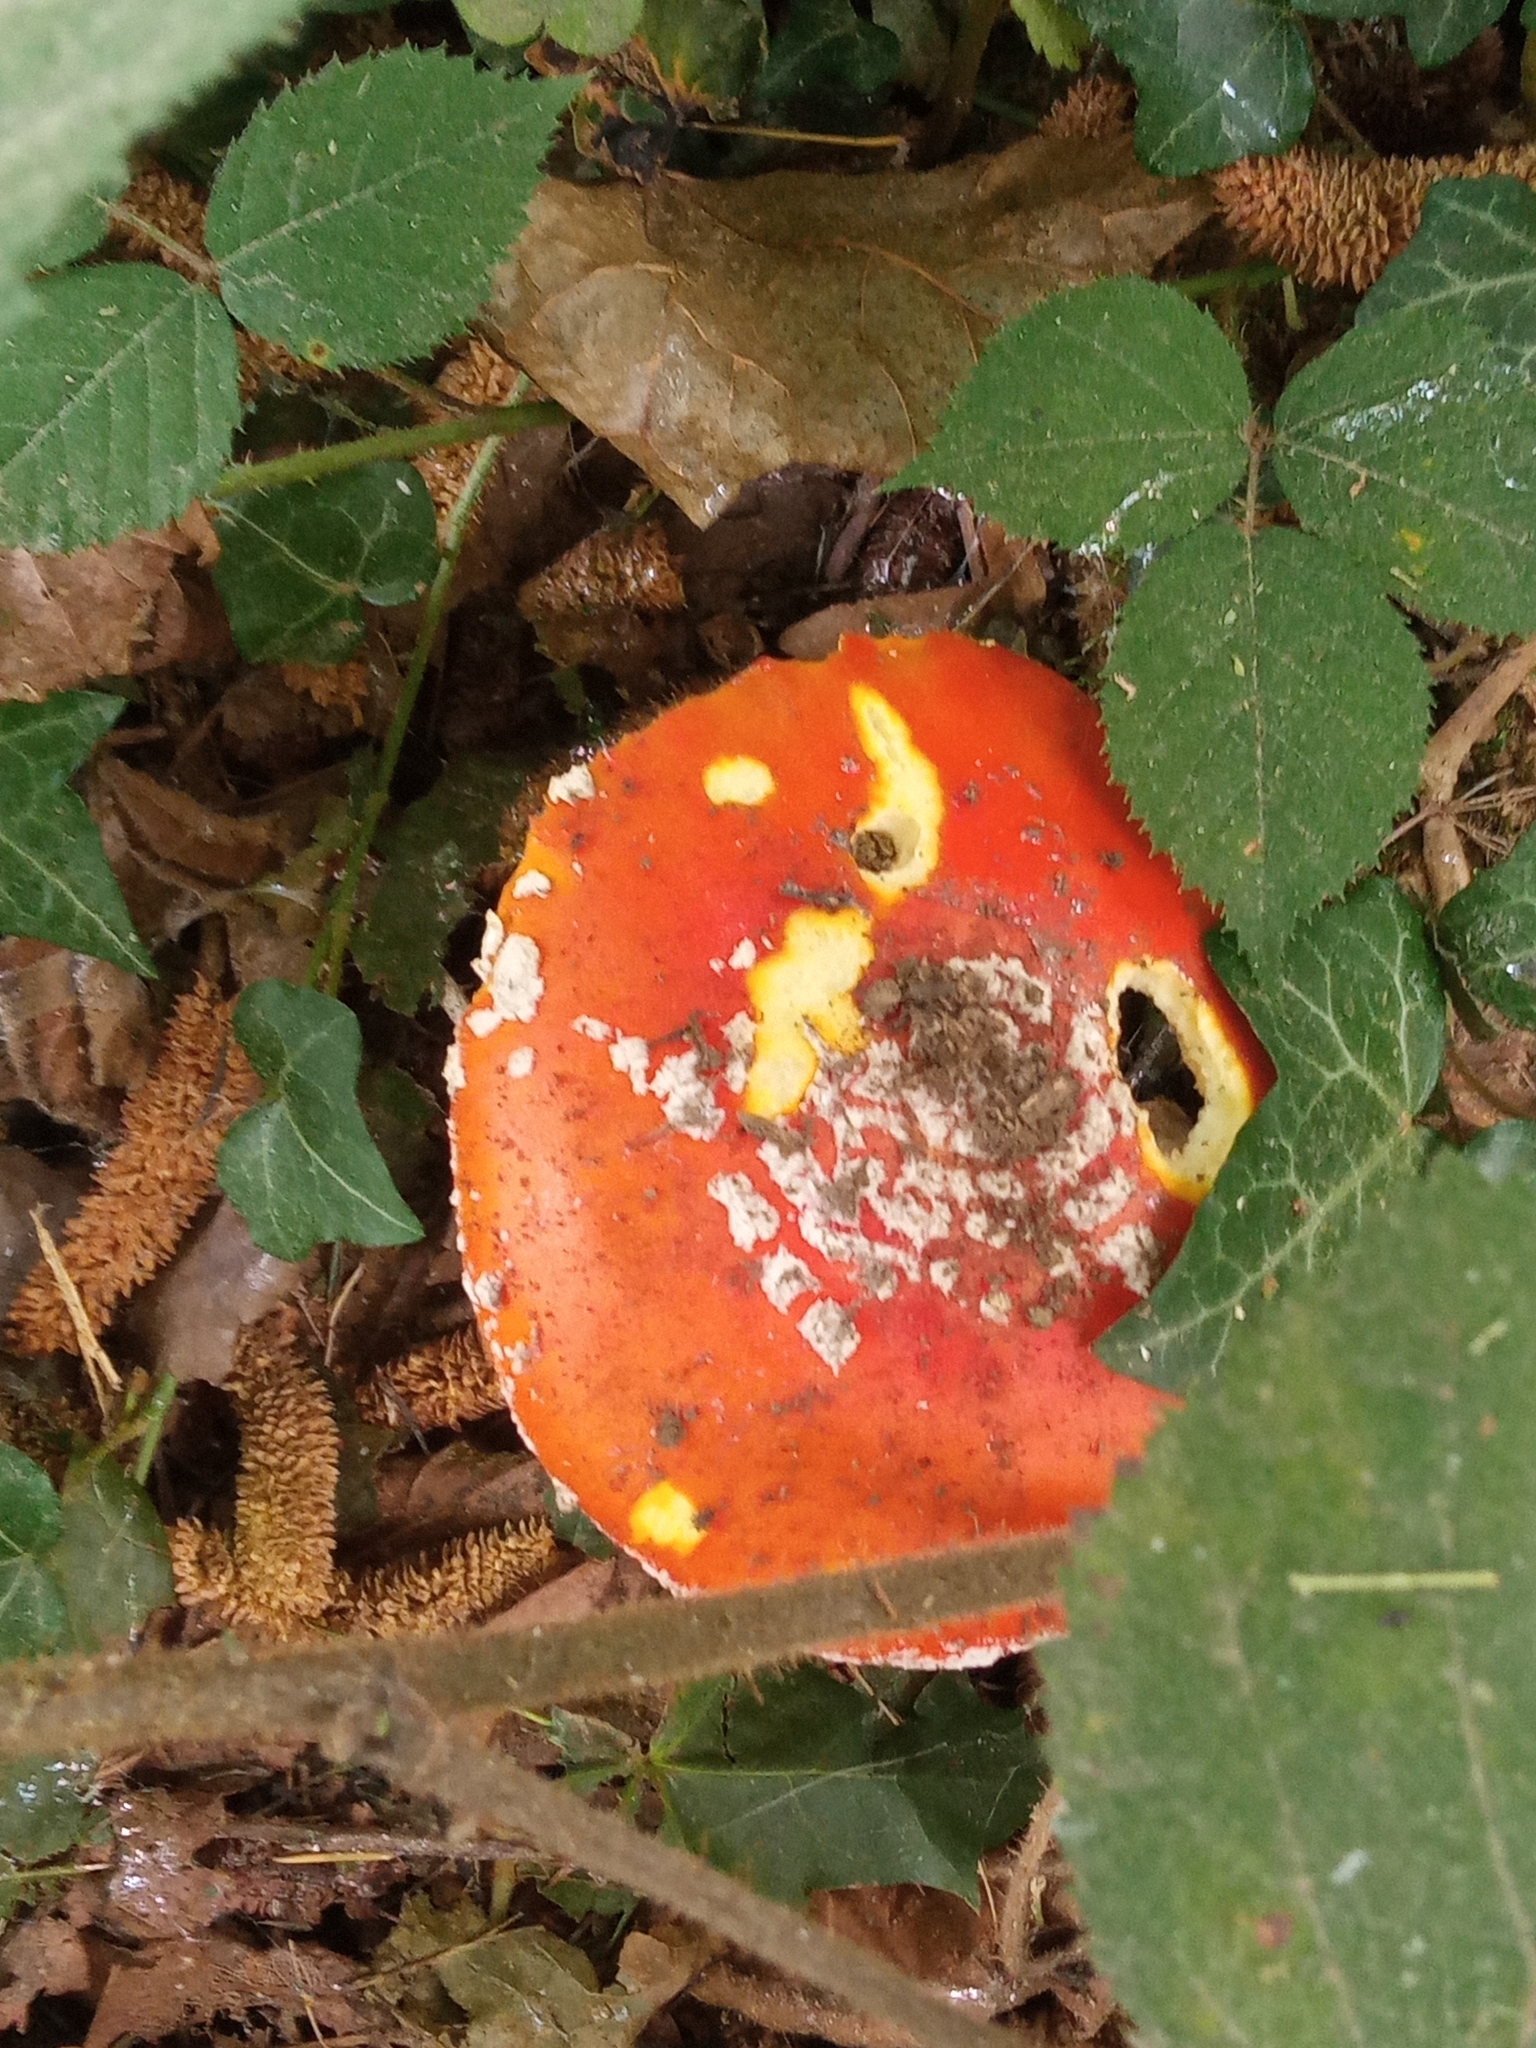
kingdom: Fungi
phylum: Basidiomycota
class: Agaricomycetes
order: Agaricales
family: Amanitaceae
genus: Amanita
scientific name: Amanita muscaria
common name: Fly agaric
